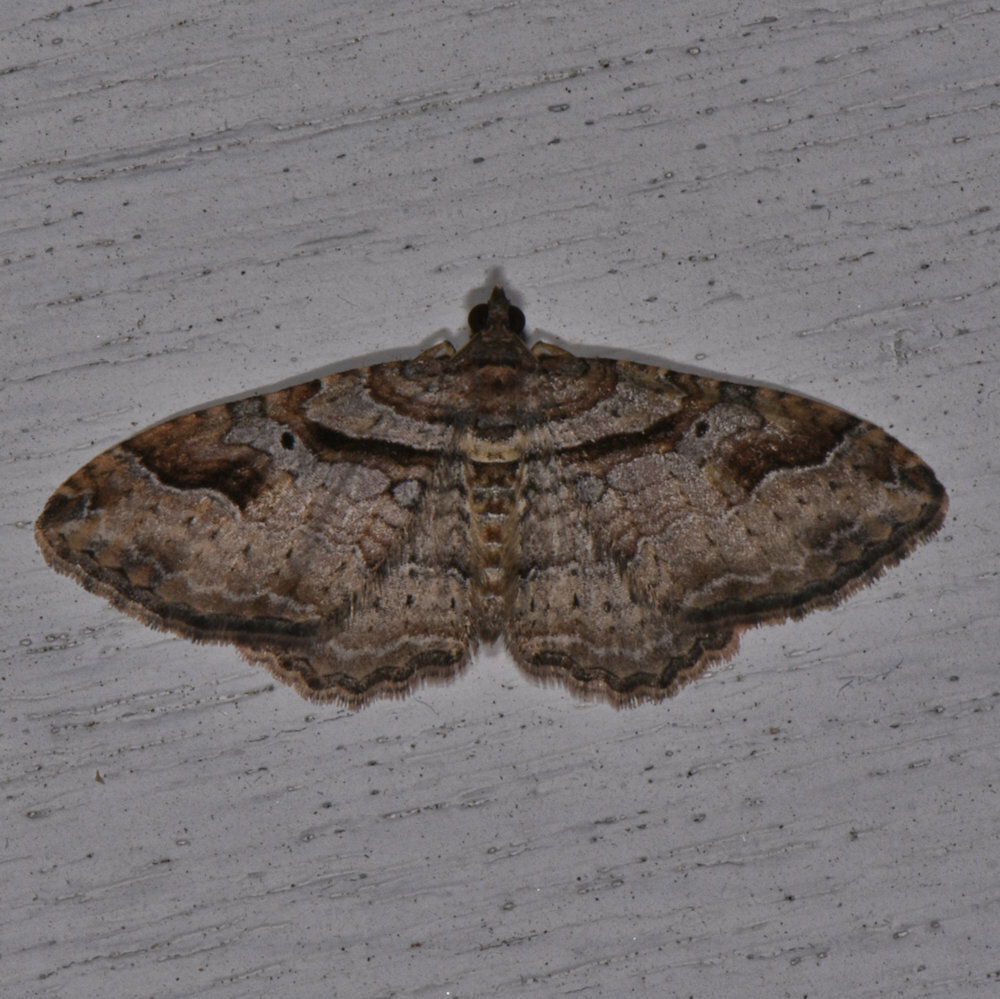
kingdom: Animalia
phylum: Arthropoda
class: Insecta
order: Lepidoptera
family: Geometridae
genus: Costaconvexa
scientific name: Costaconvexa centrostrigaria
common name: Bent-line carpet
